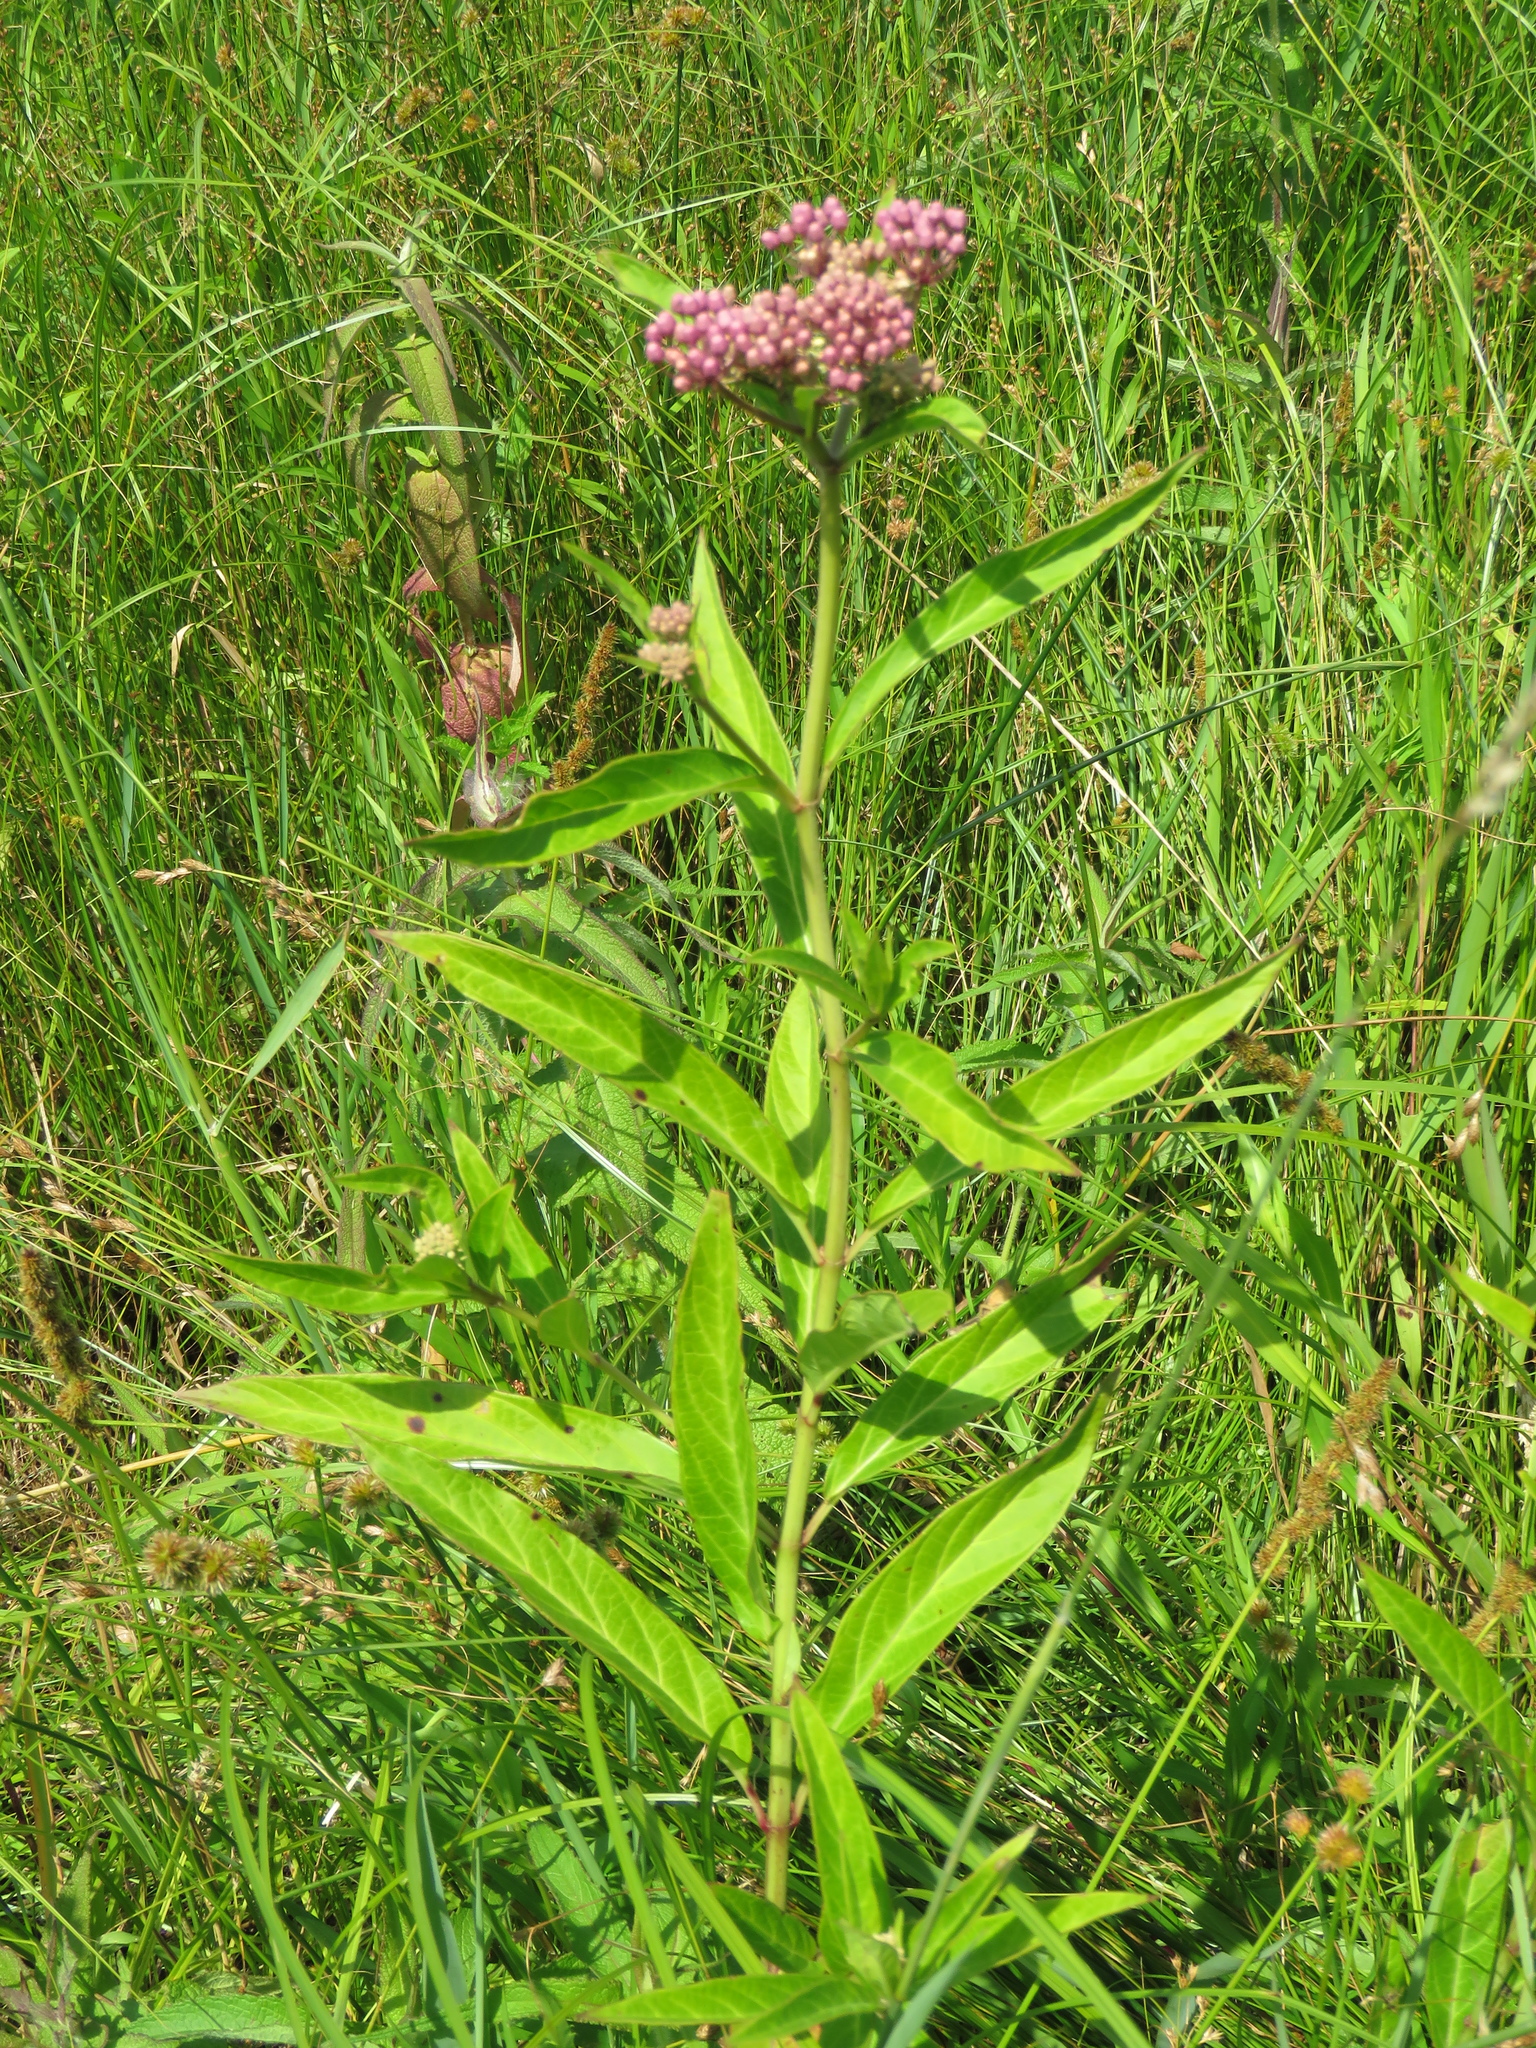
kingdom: Plantae
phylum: Tracheophyta
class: Magnoliopsida
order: Gentianales
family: Apocynaceae
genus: Asclepias
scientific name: Asclepias incarnata
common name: Swamp milkweed
